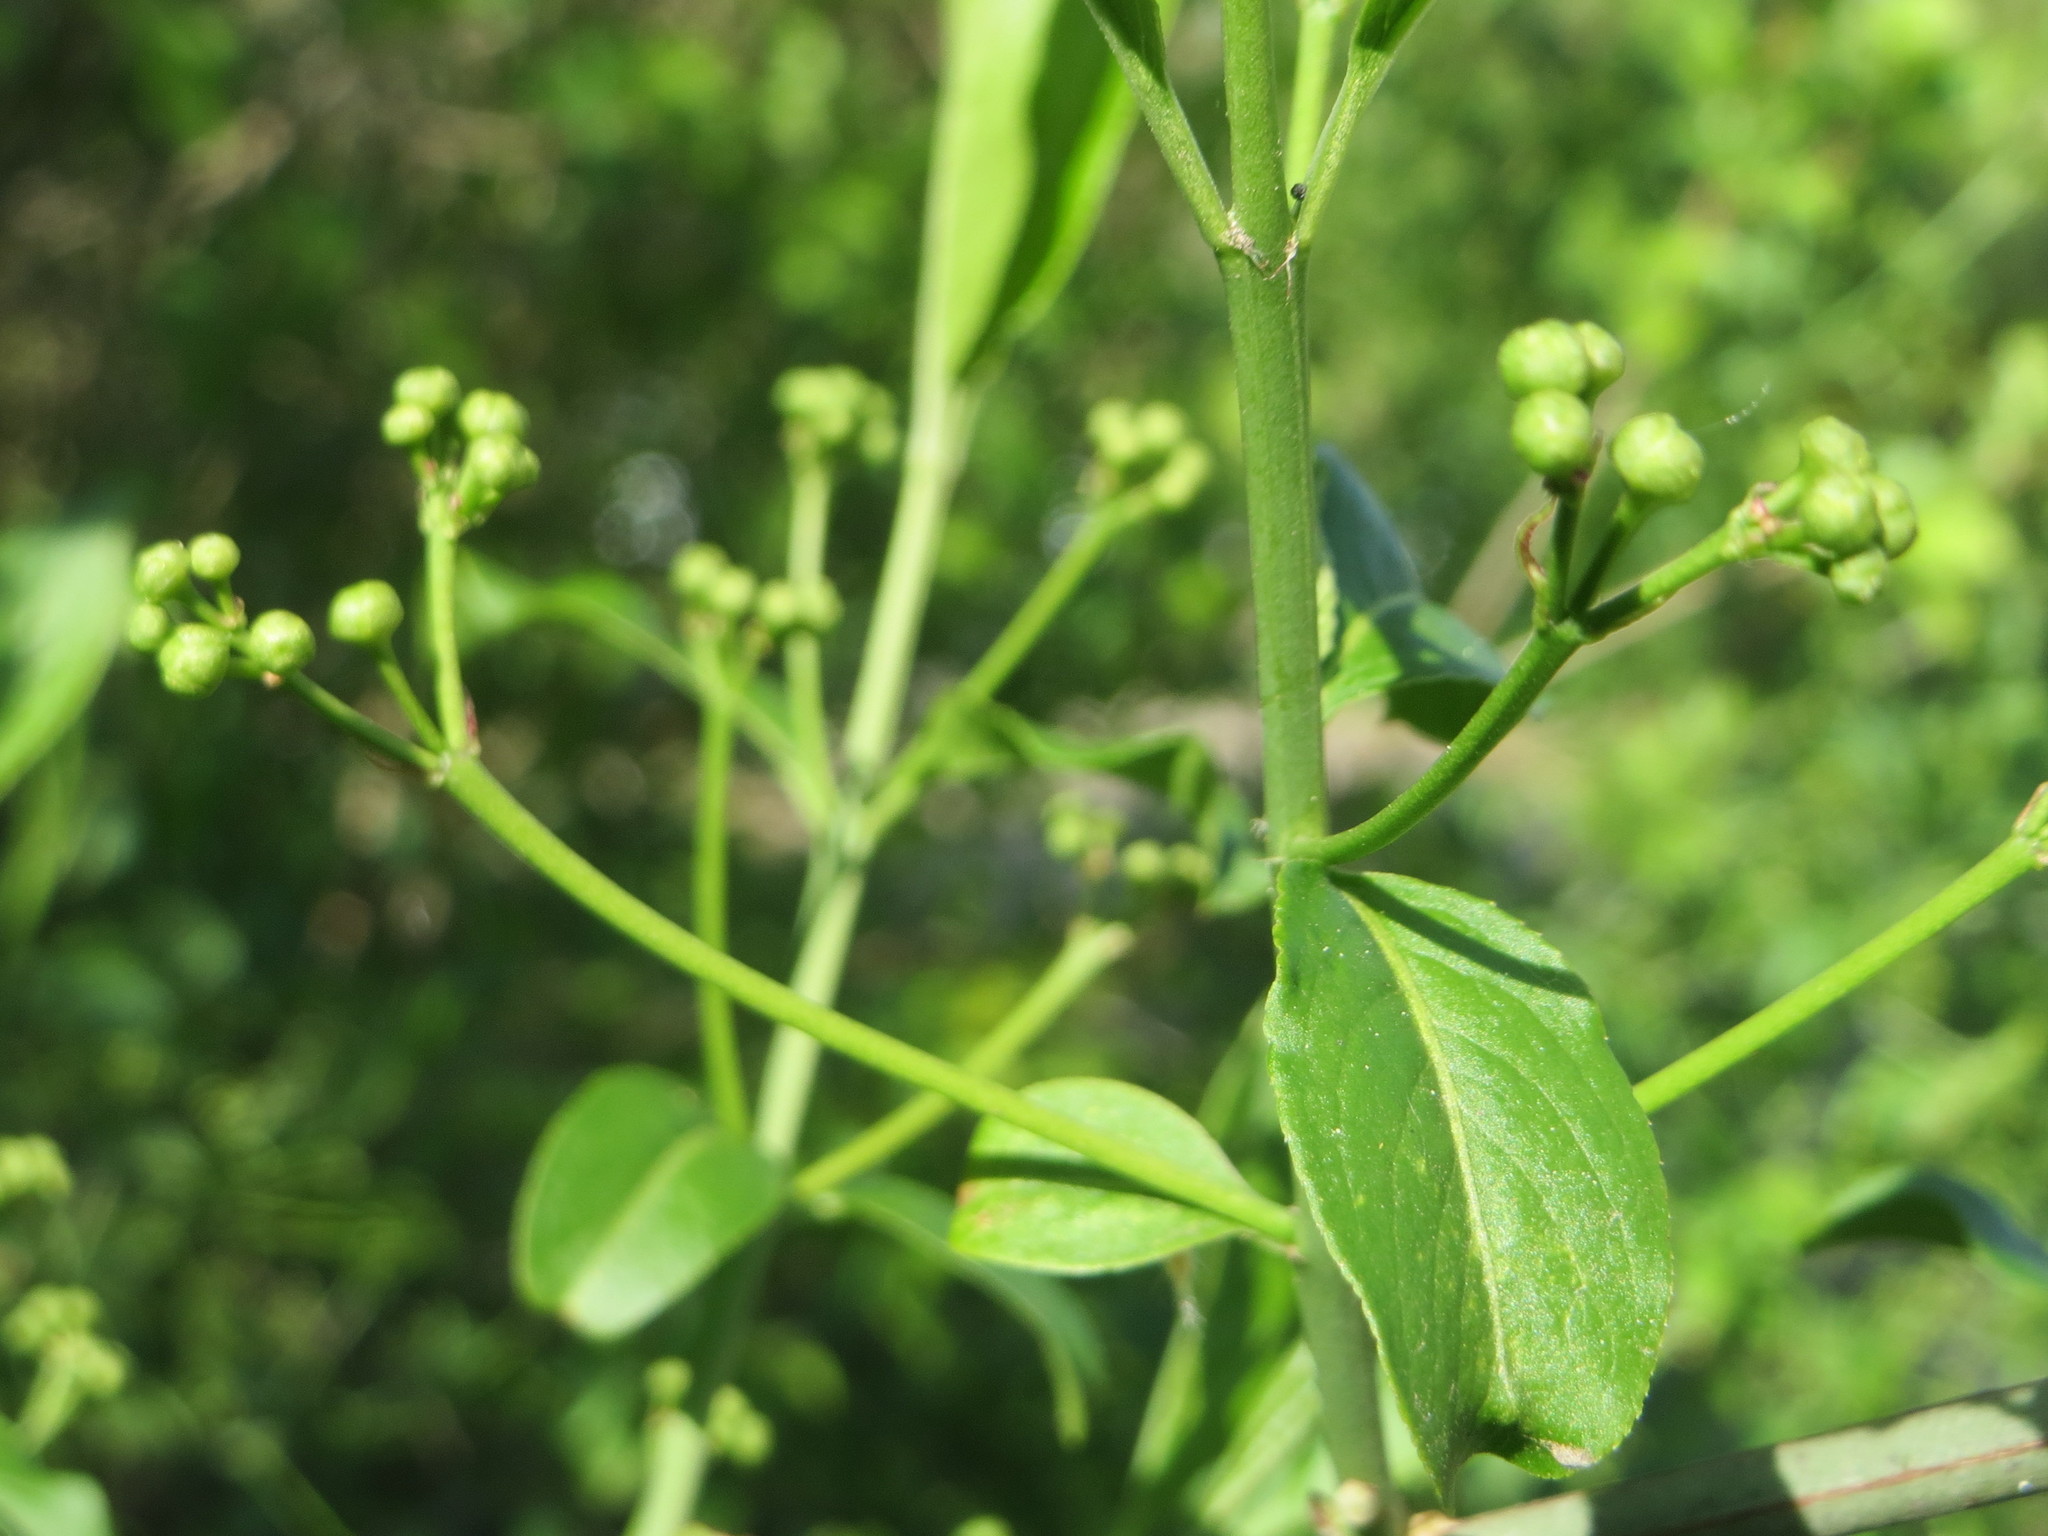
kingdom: Plantae
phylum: Tracheophyta
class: Magnoliopsida
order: Celastrales
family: Celastraceae
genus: Euonymus
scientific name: Euonymus europaeus
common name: Spindle
